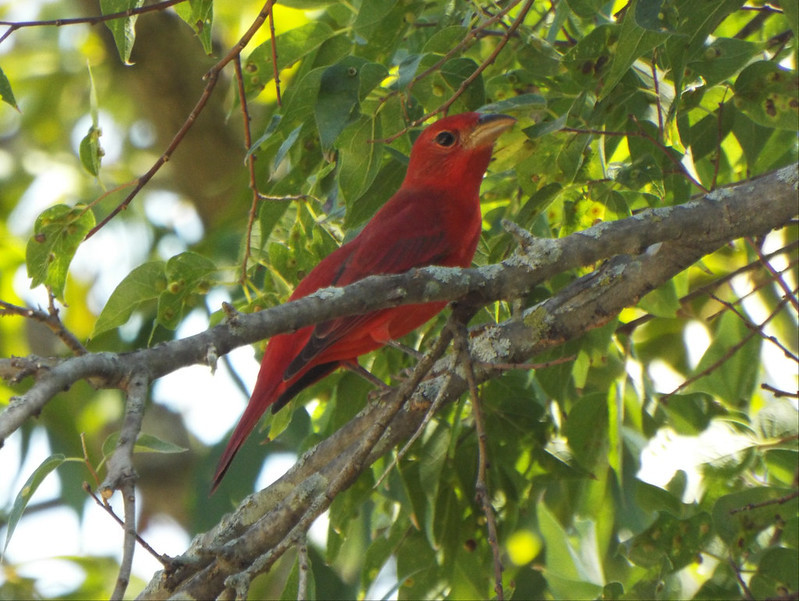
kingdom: Animalia
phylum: Chordata
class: Aves
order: Passeriformes
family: Cardinalidae
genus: Piranga
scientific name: Piranga rubra
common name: Summer tanager
